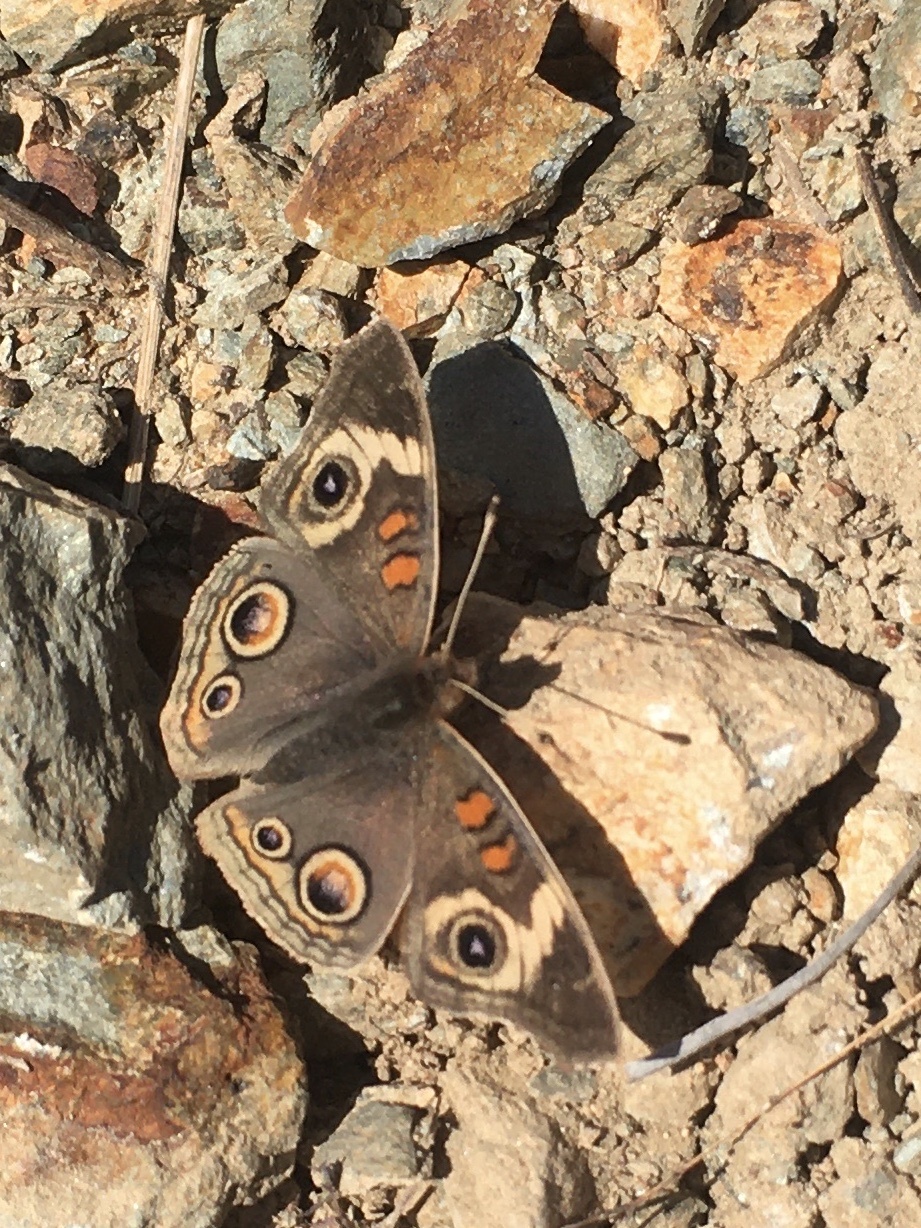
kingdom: Animalia
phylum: Arthropoda
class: Insecta
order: Lepidoptera
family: Nymphalidae
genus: Junonia
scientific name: Junonia grisea
